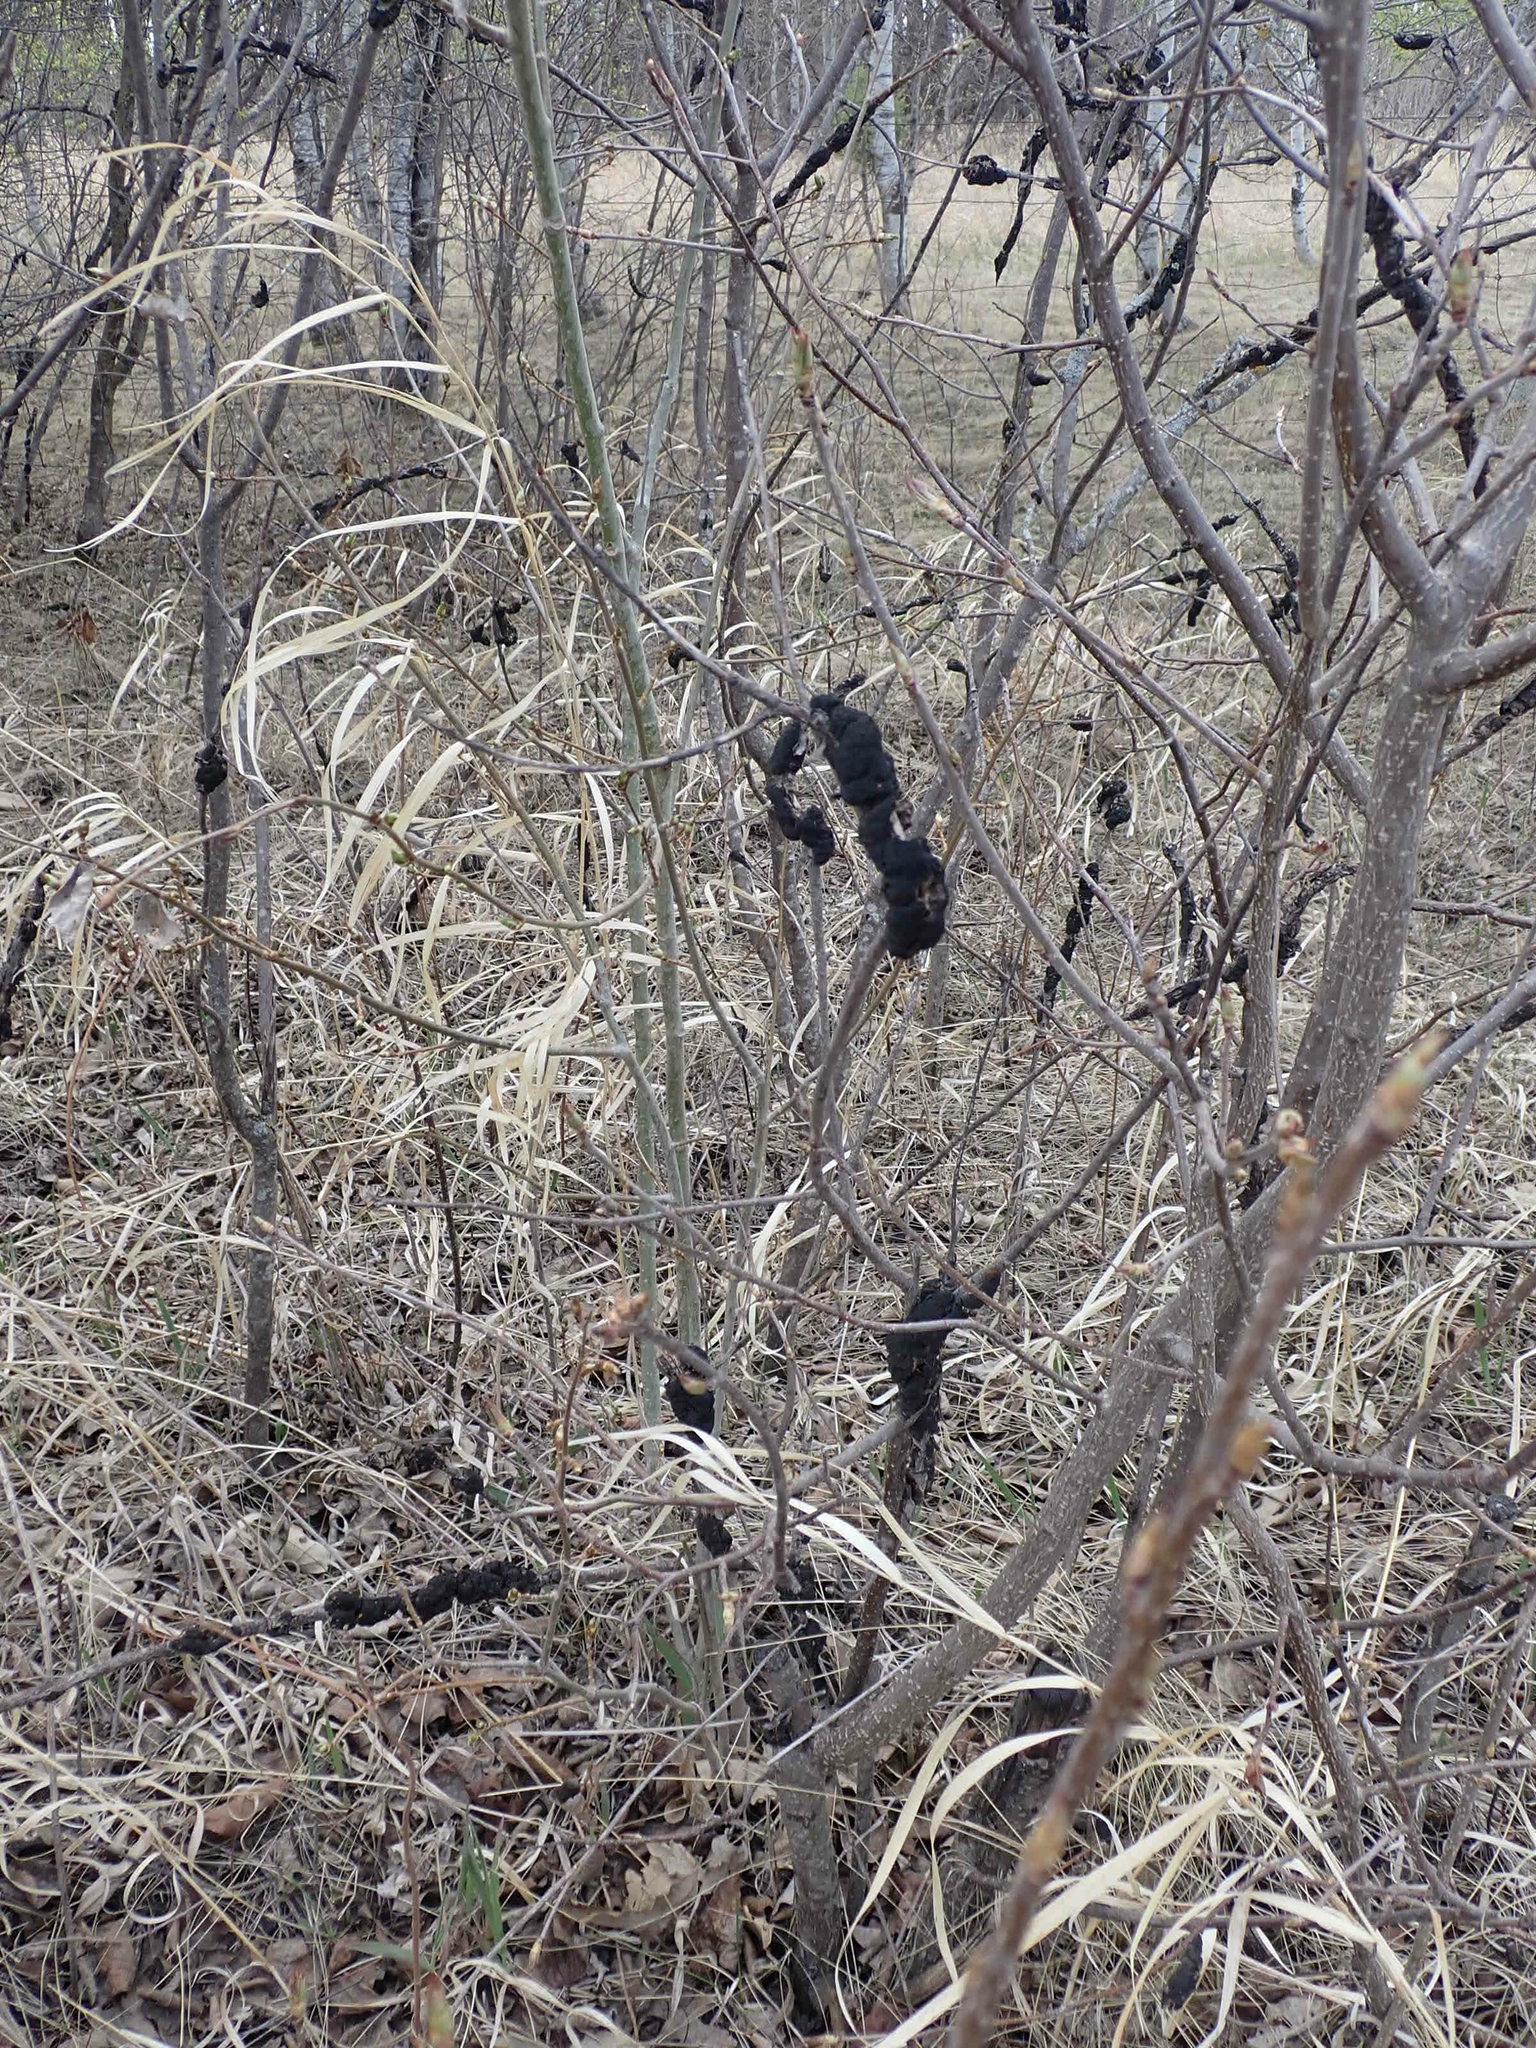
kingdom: Fungi
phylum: Ascomycota
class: Dothideomycetes
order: Venturiales
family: Venturiaceae
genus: Apiosporina
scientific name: Apiosporina morbosa
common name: Black knot
